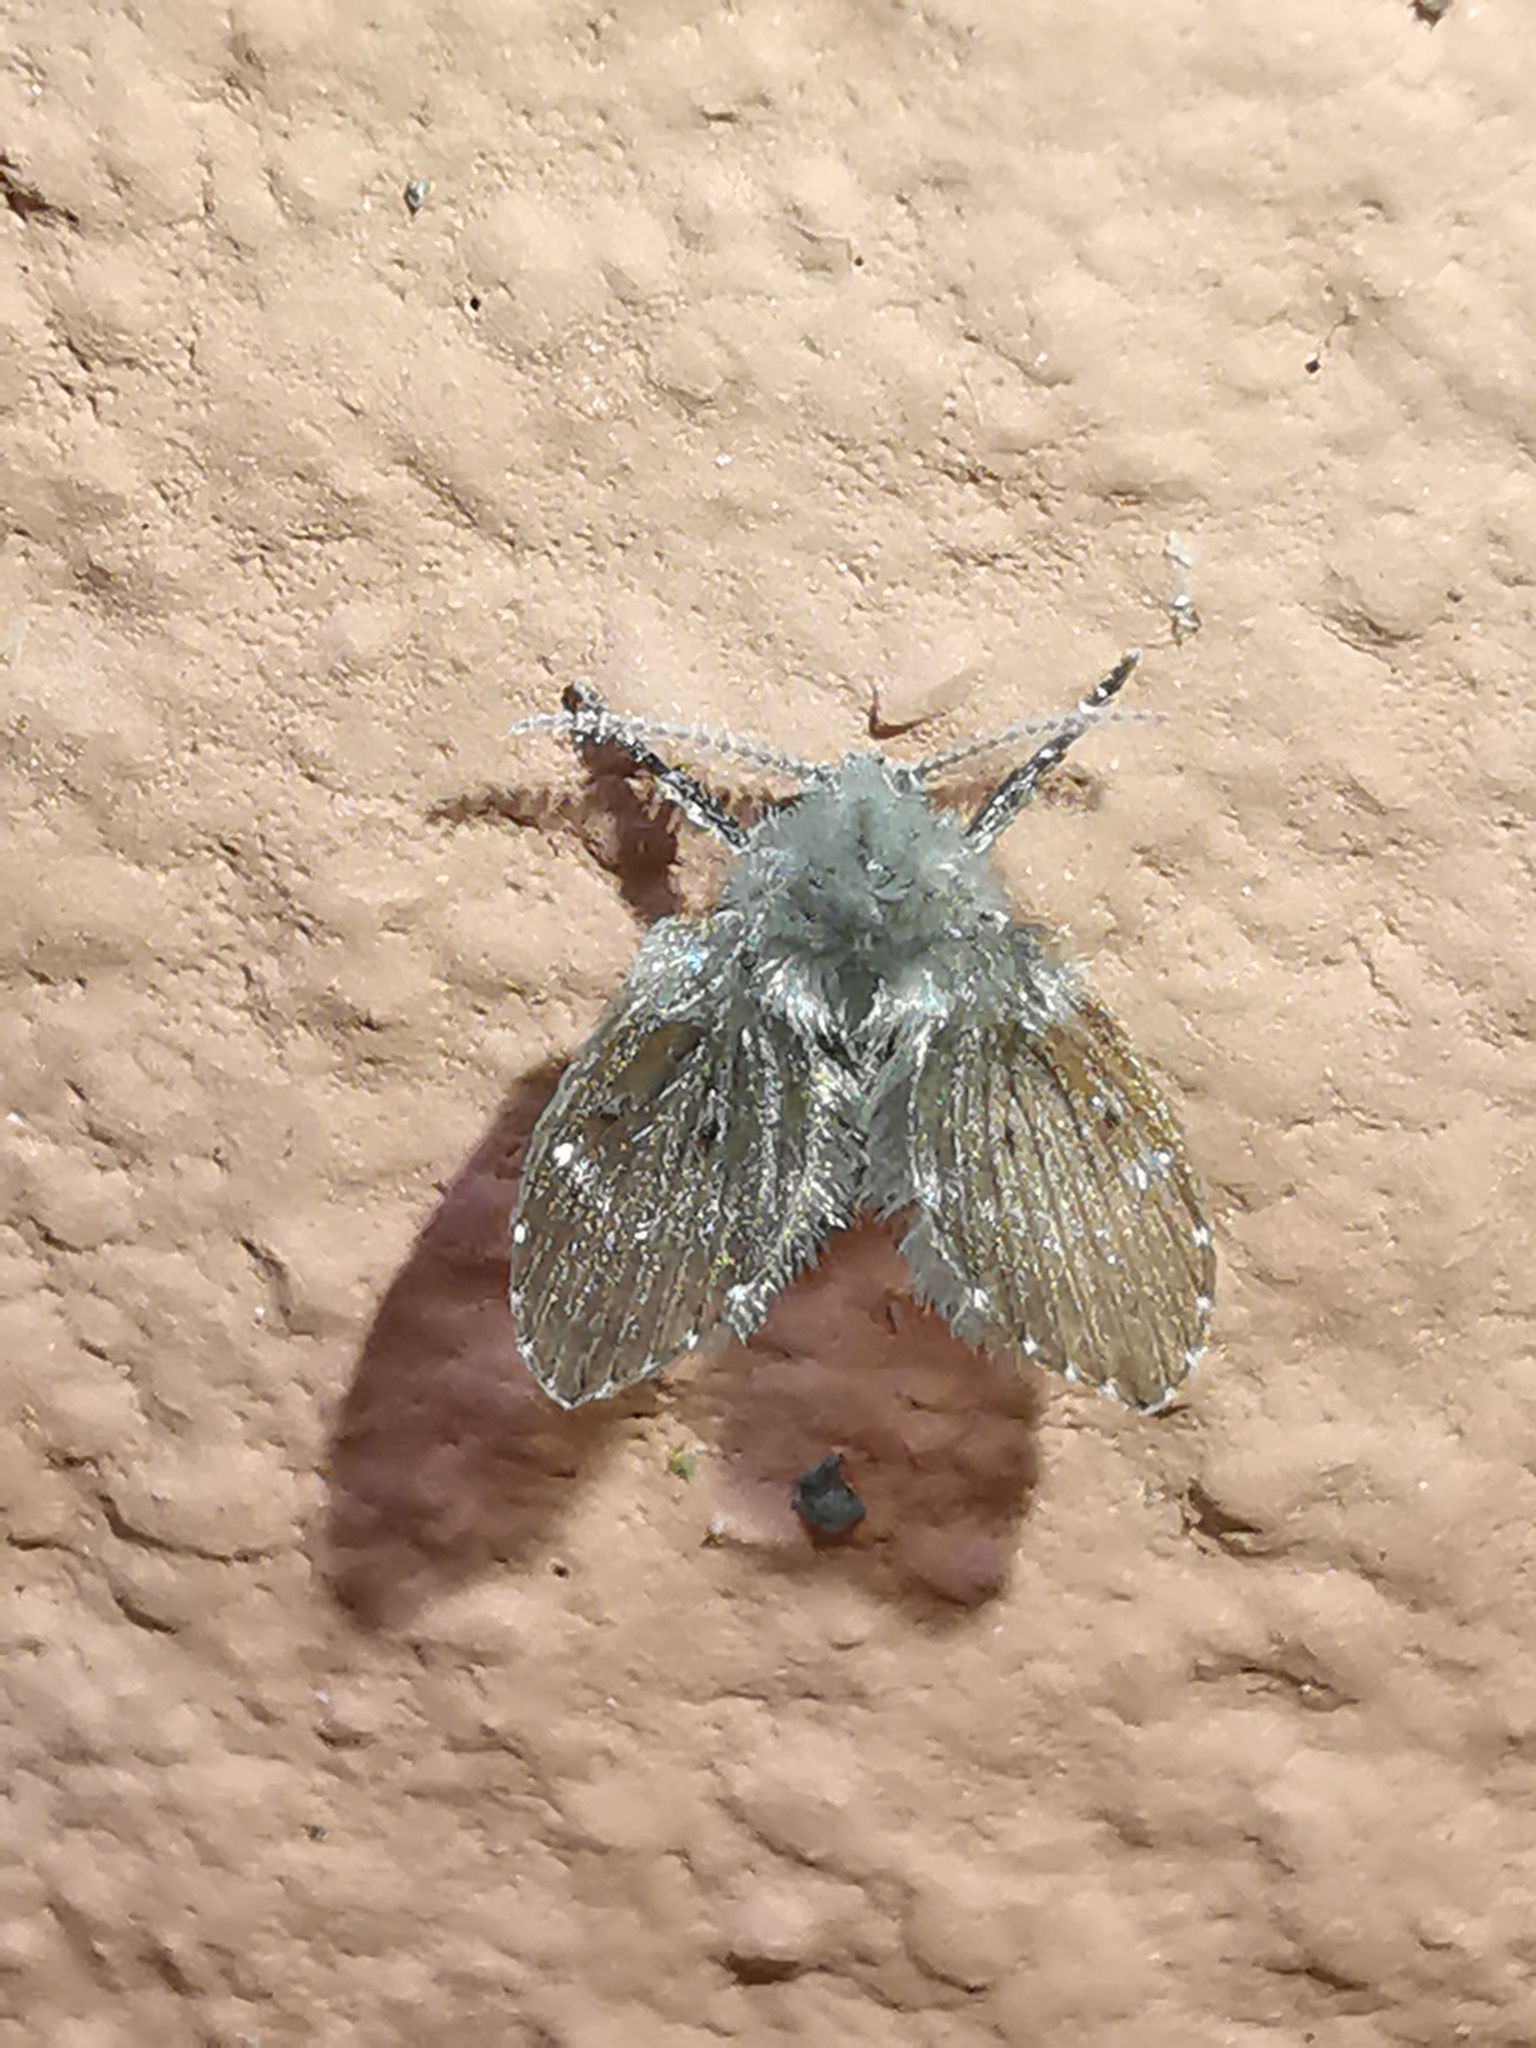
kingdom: Animalia
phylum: Arthropoda
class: Insecta
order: Diptera
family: Psychodidae
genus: Clogmia
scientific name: Clogmia albipunctatus
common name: White-spotted moth fly
